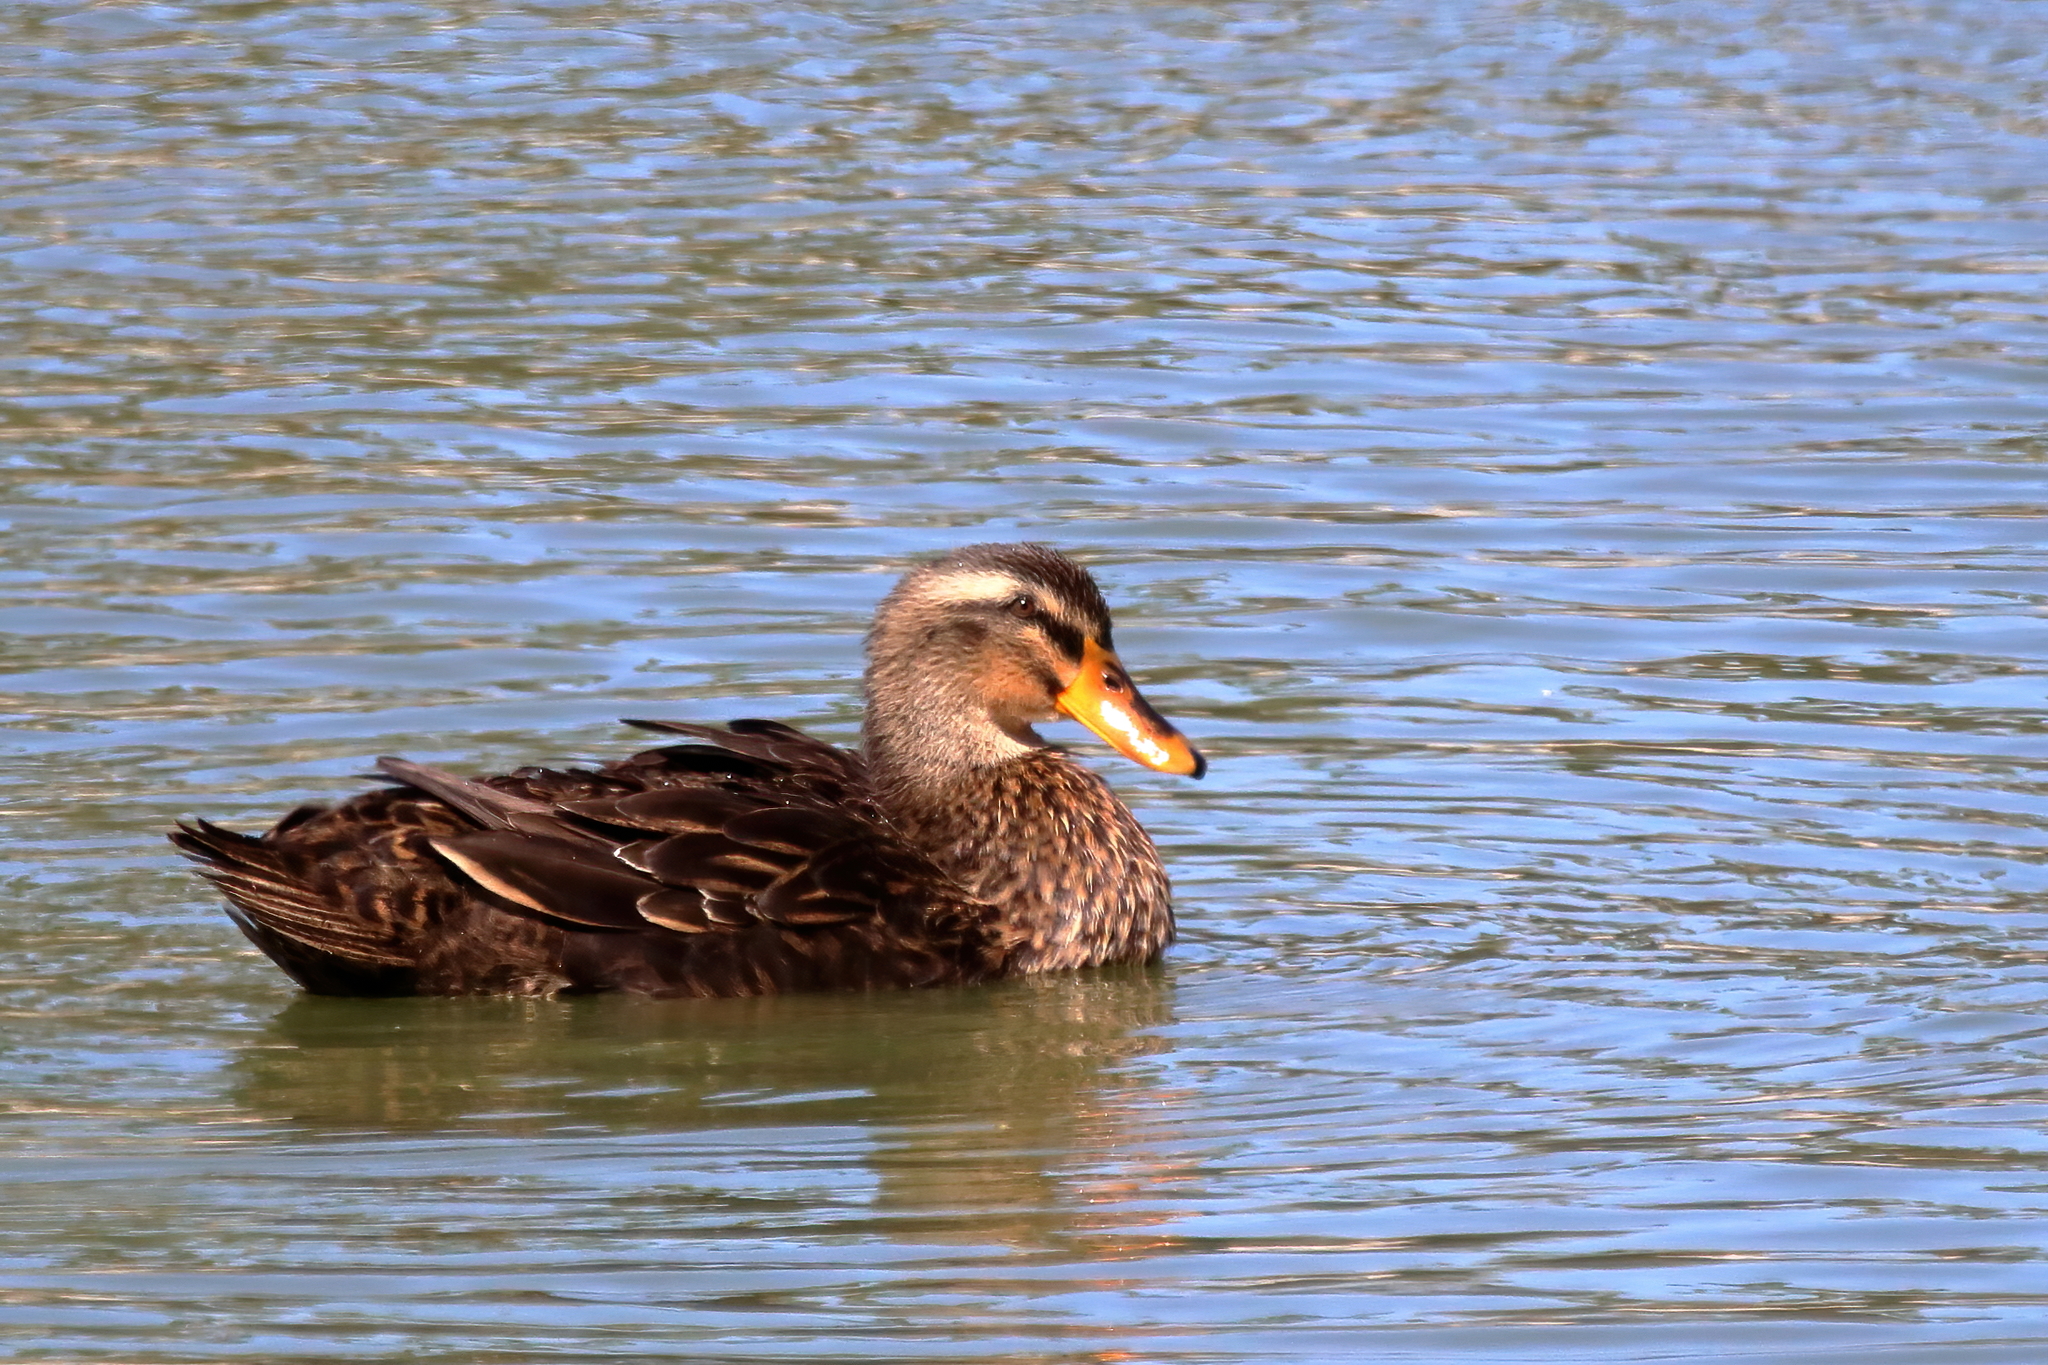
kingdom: Animalia
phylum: Chordata
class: Aves
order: Anseriformes
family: Anatidae
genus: Anas
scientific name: Anas platyrhynchos
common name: Mallard
